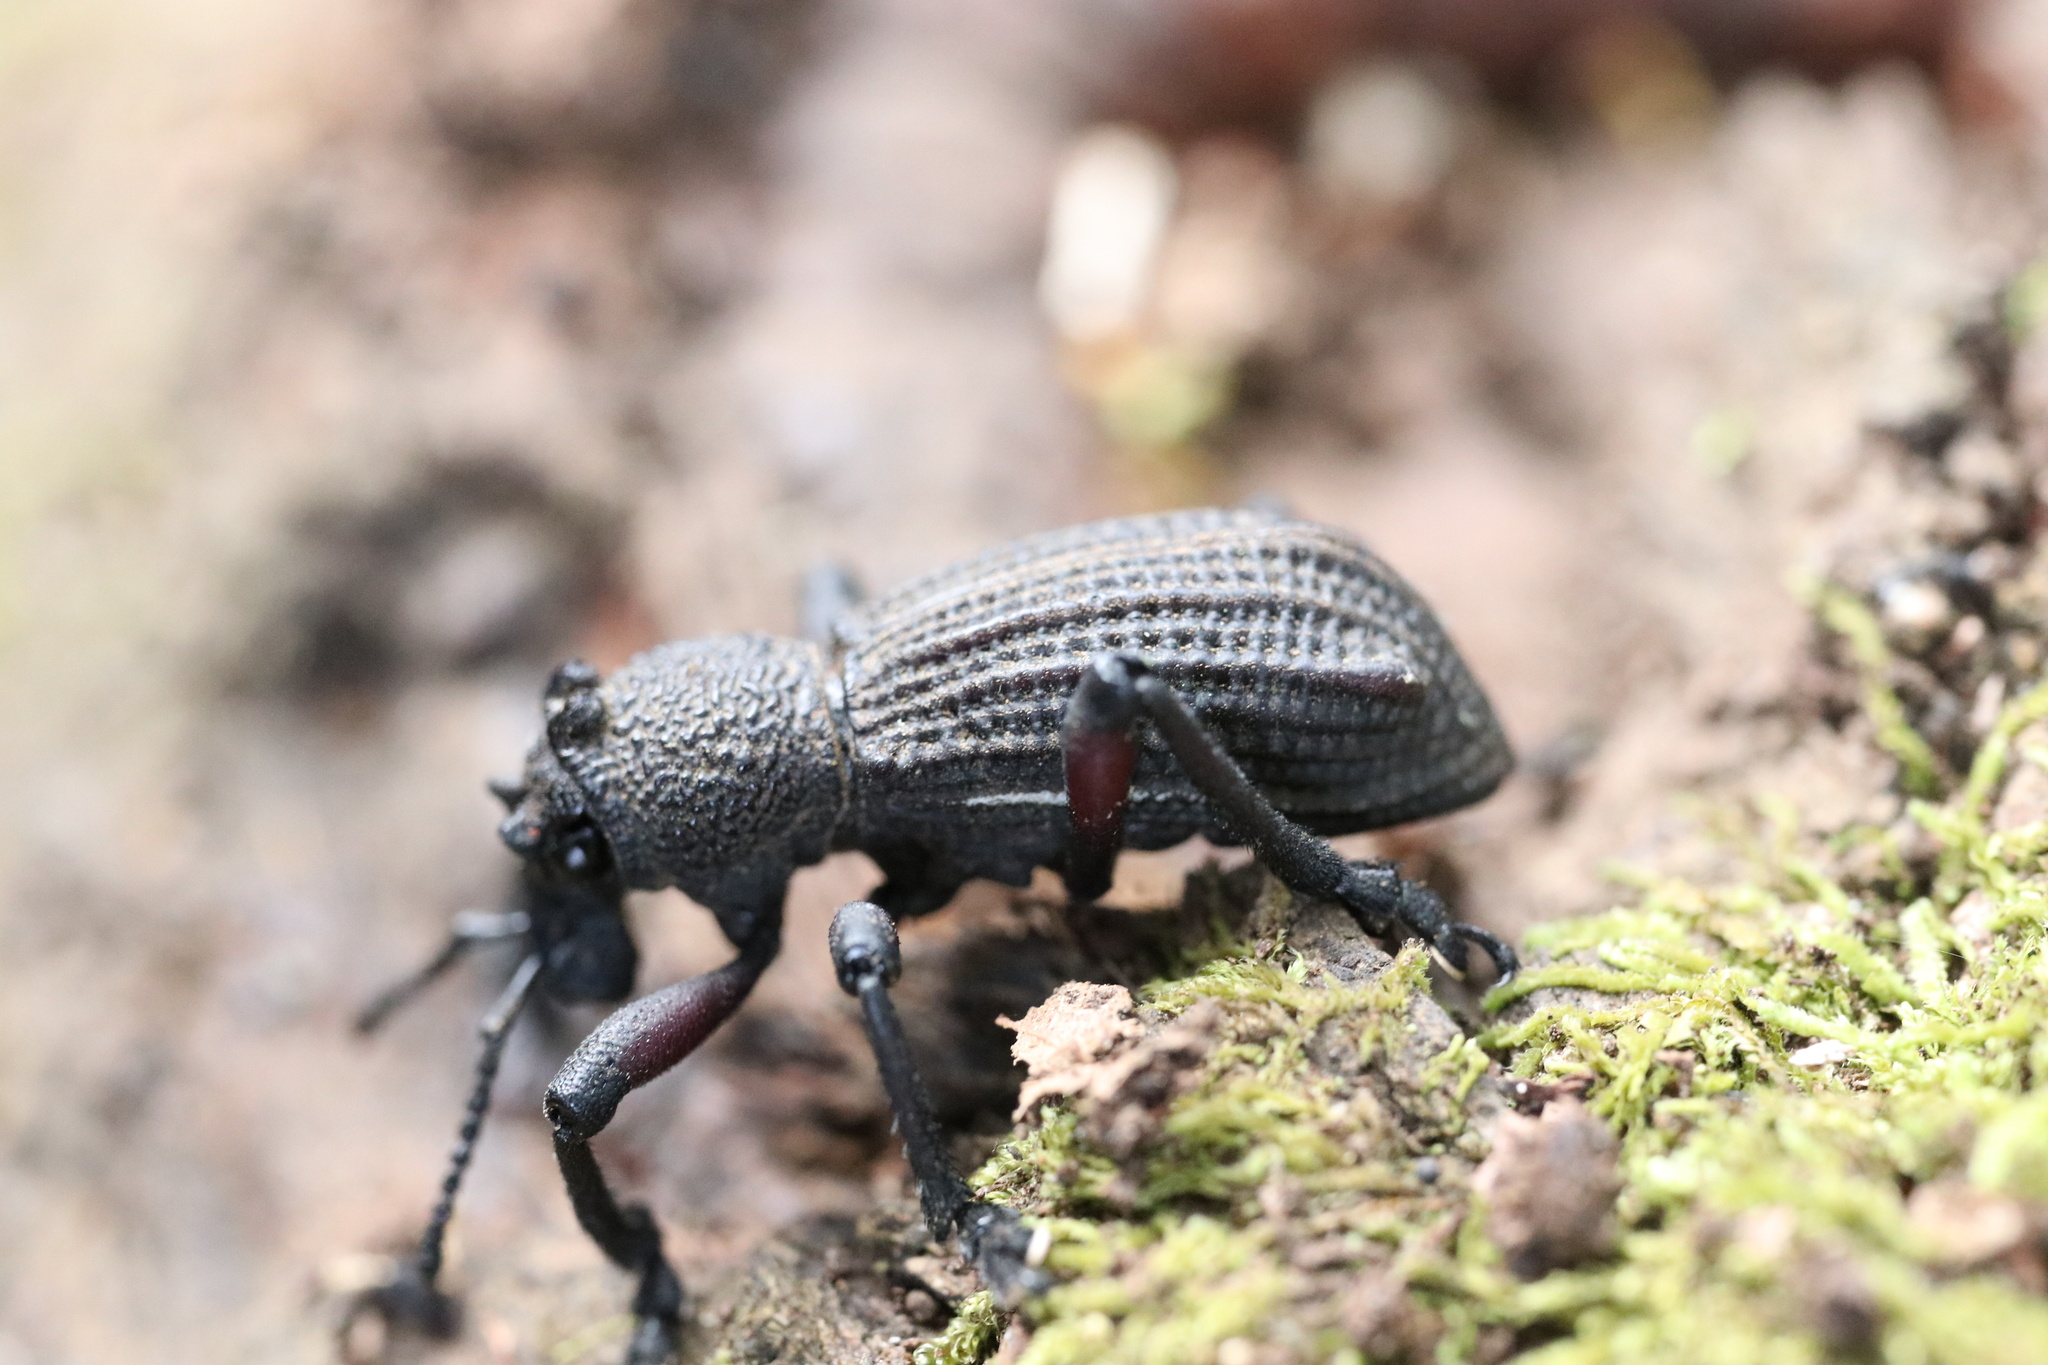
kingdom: Animalia
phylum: Arthropoda
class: Insecta
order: Coleoptera
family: Curculionidae
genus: Aegorhinus
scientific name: Aegorhinus
